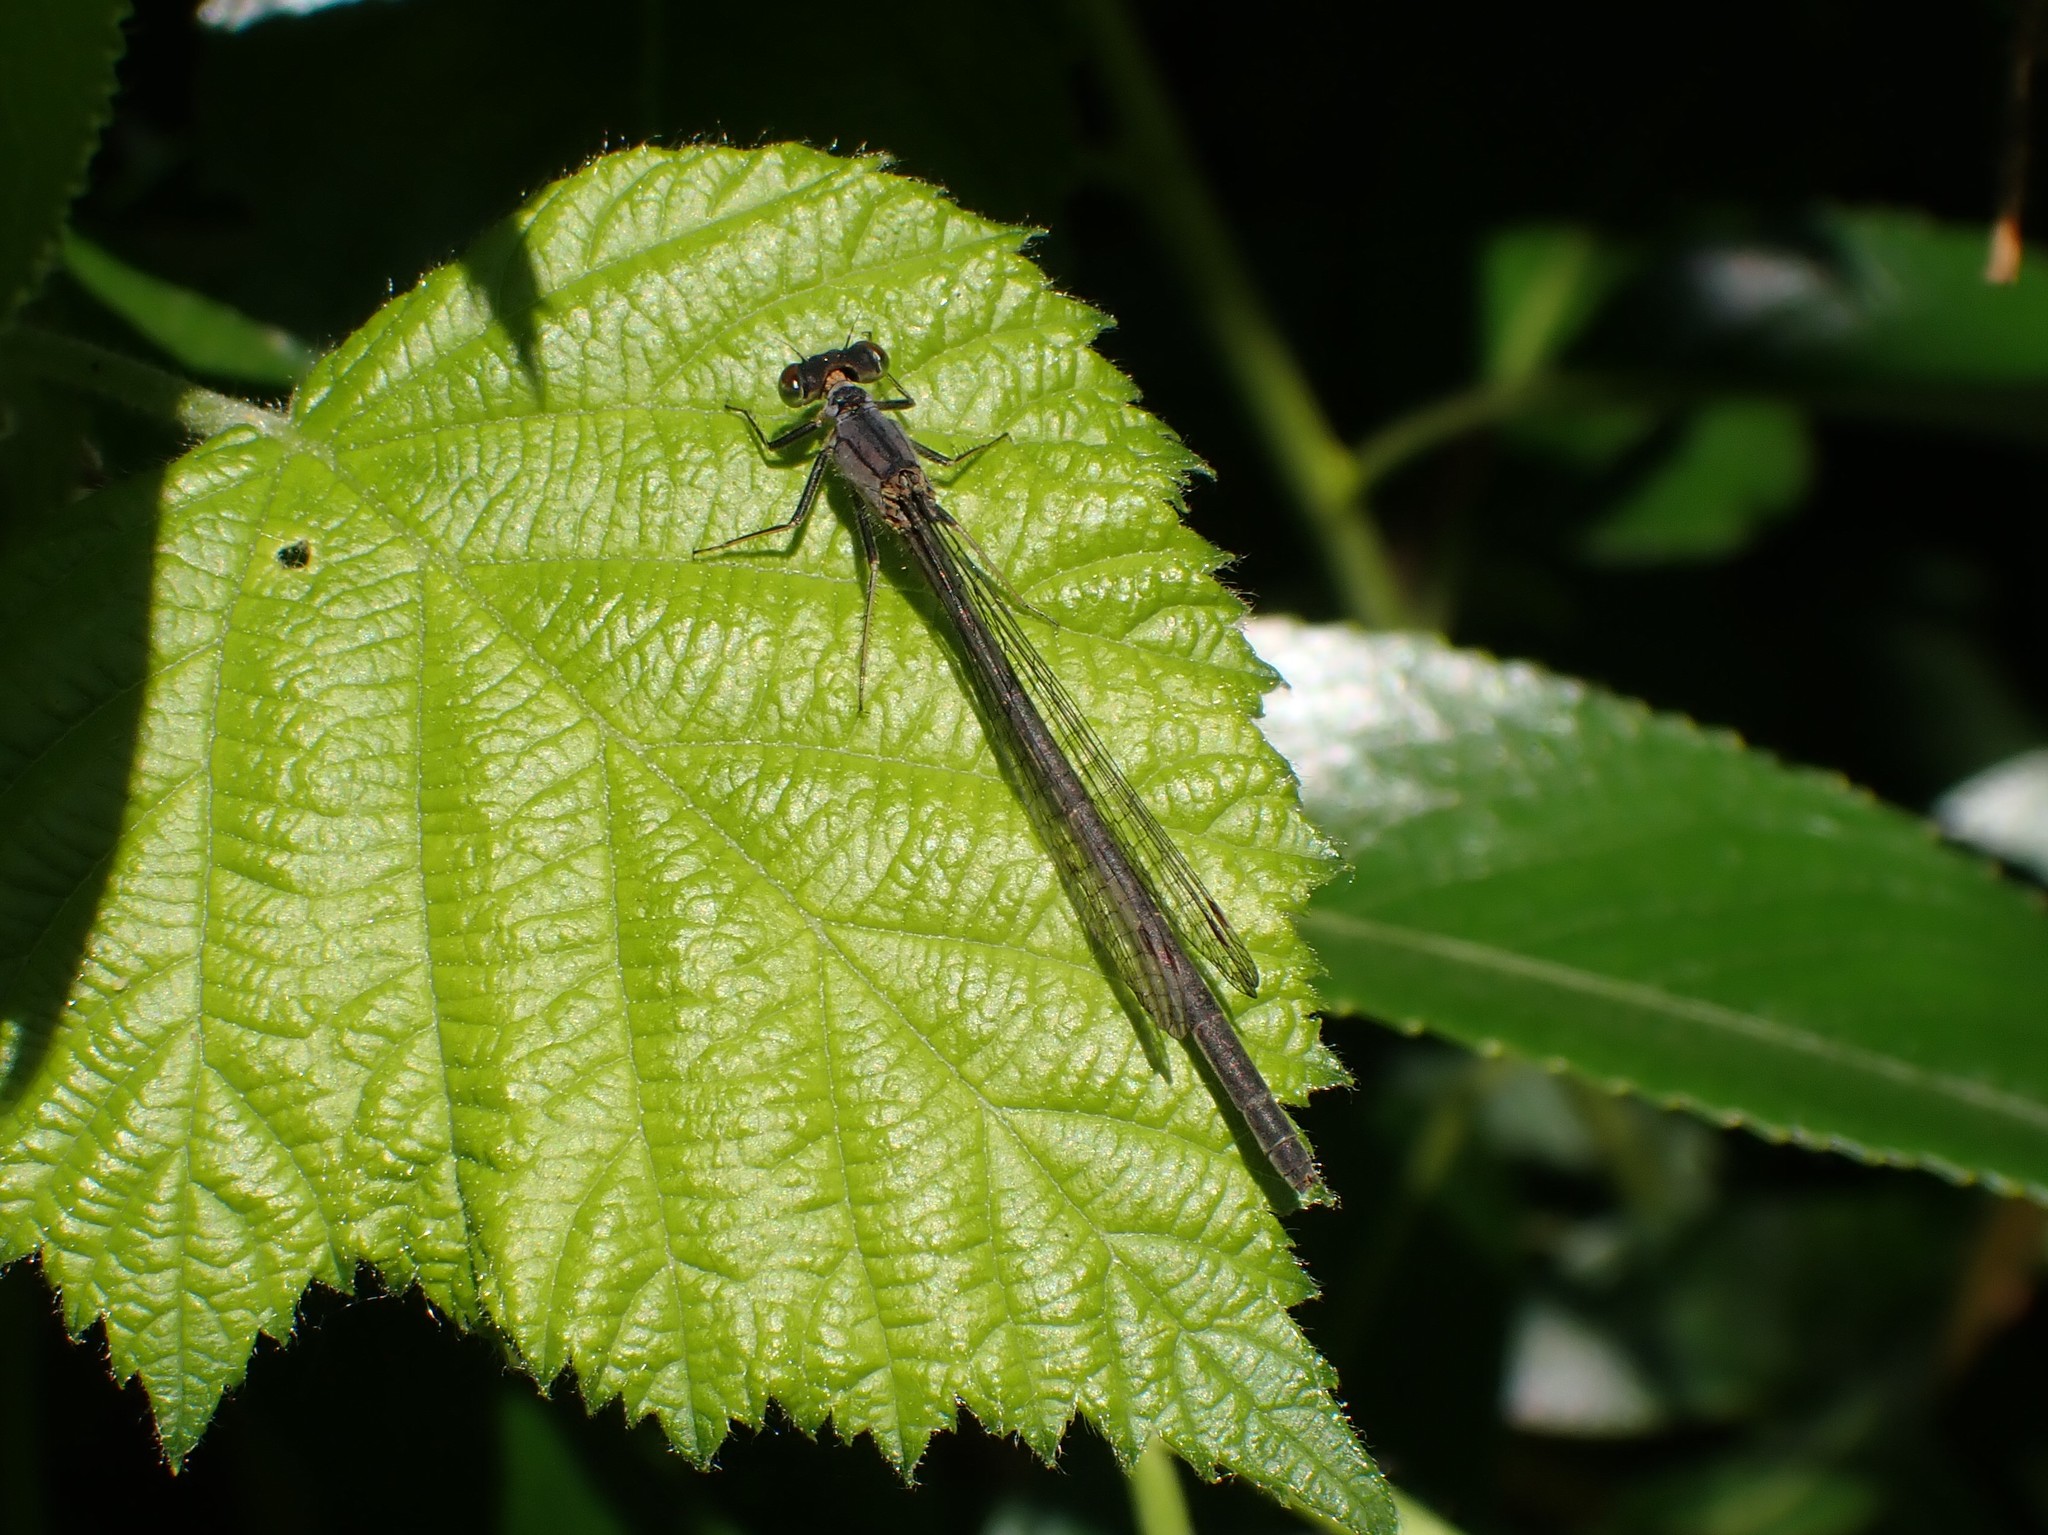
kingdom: Animalia
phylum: Arthropoda
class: Insecta
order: Odonata
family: Coenagrionidae
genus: Ischnura
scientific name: Ischnura cervula
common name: Pacific forktail
